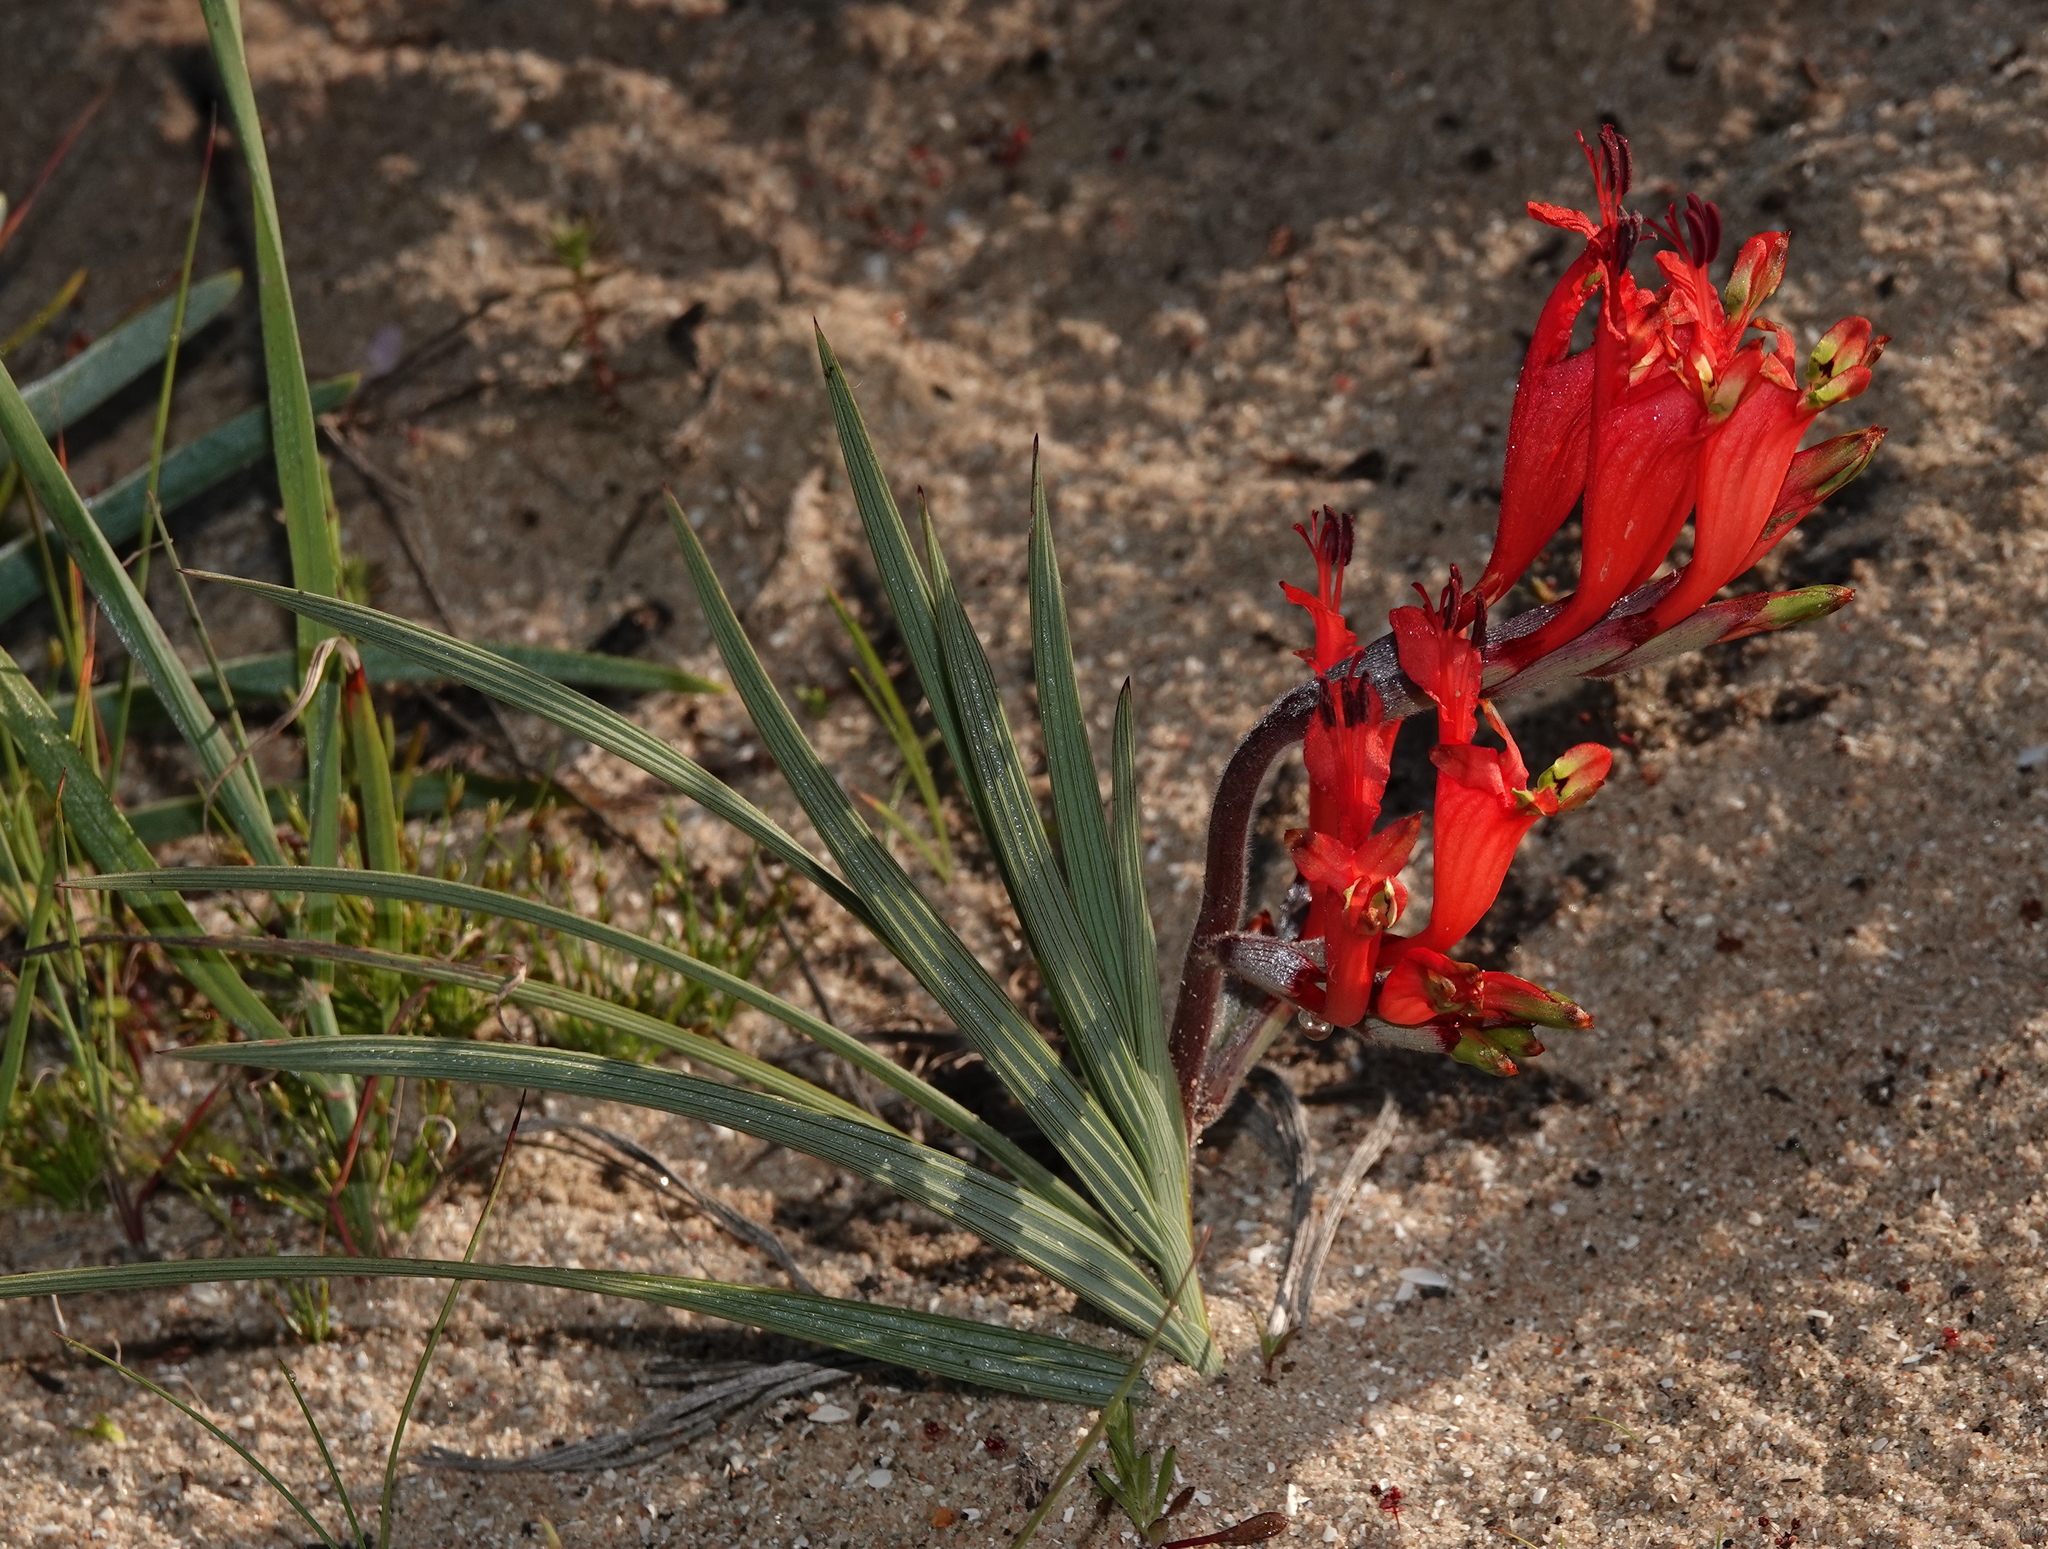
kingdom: Plantae
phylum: Tracheophyta
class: Liliopsida
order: Asparagales
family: Iridaceae
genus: Babiana
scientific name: Babiana hirsuta
